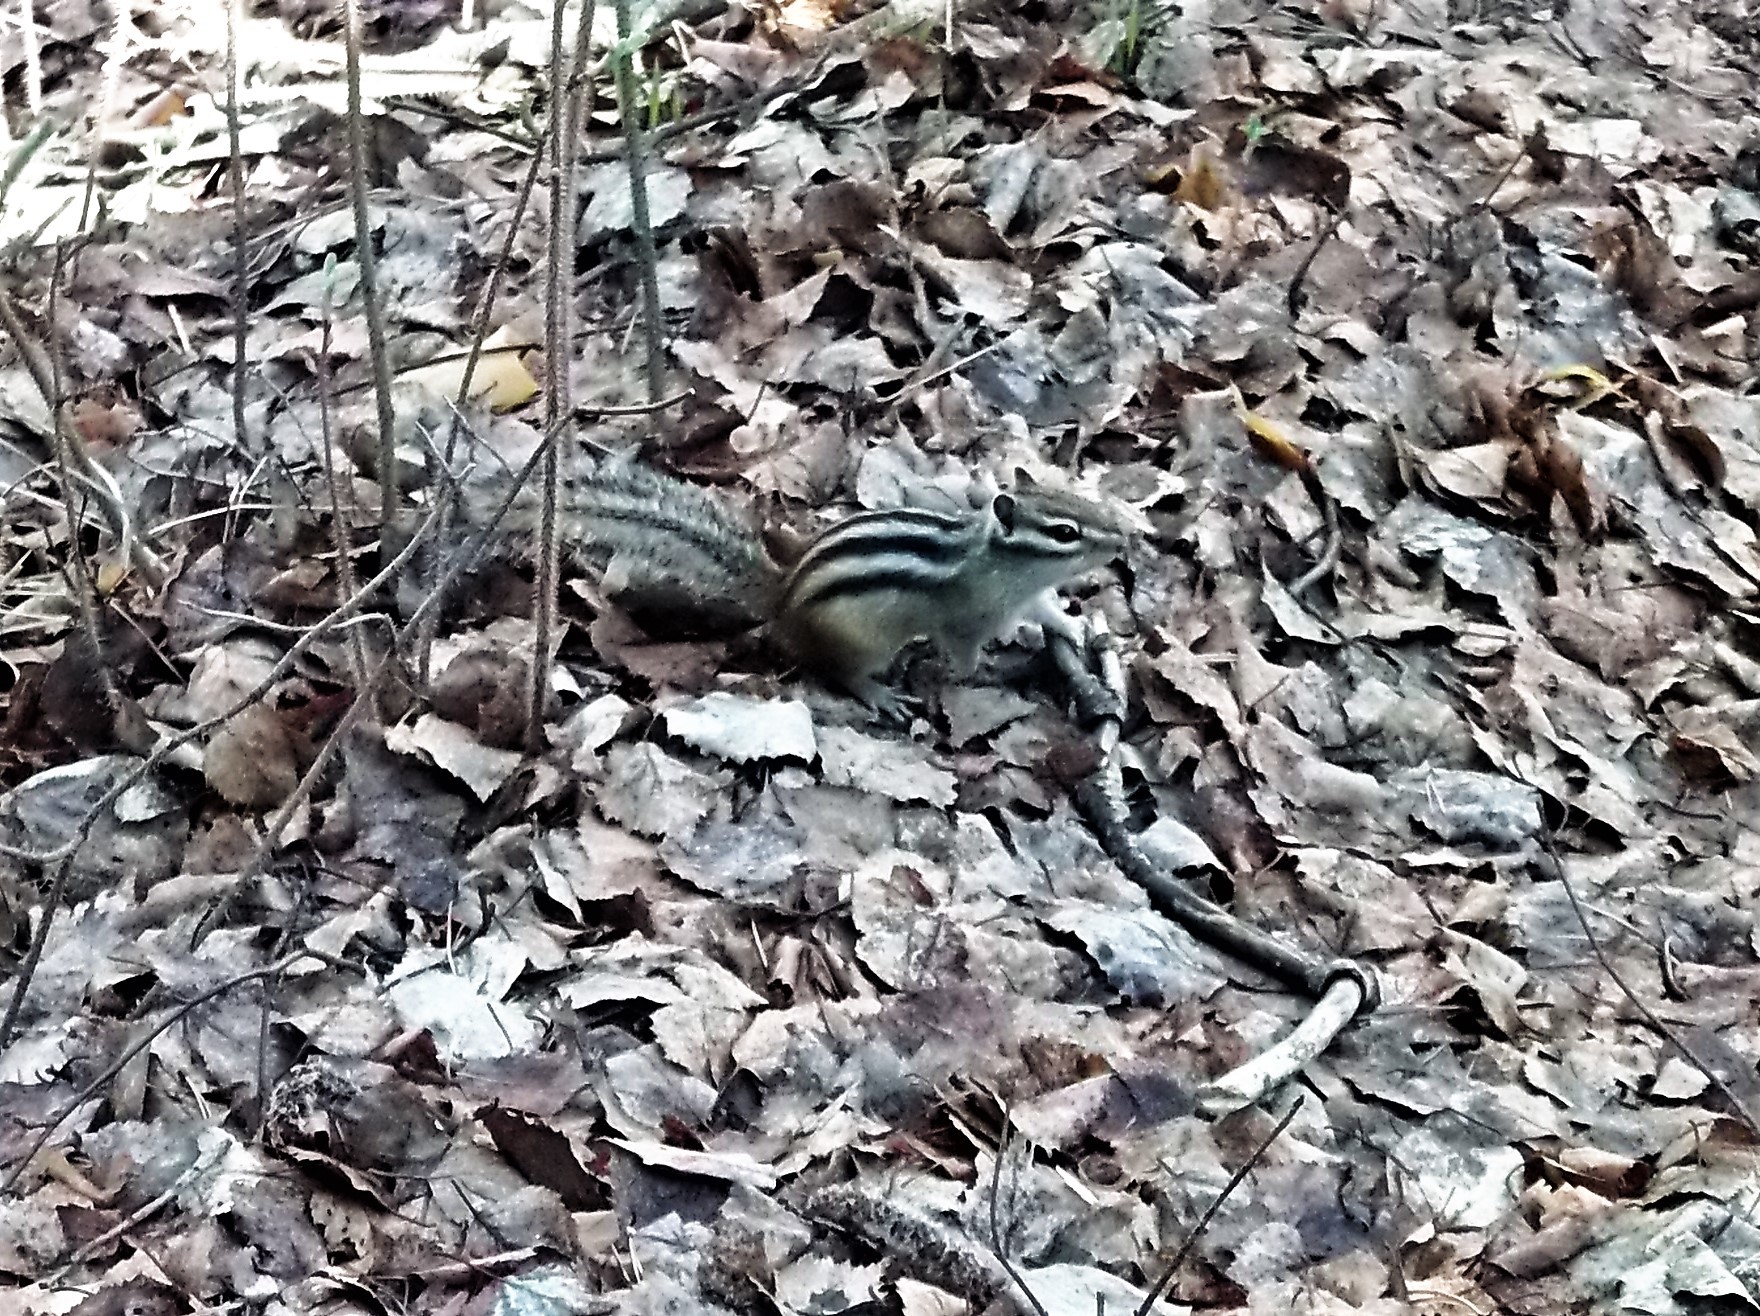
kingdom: Animalia
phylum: Chordata
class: Mammalia
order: Rodentia
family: Sciuridae
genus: Tamias
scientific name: Tamias sibiricus
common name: Siberian chipmunk
